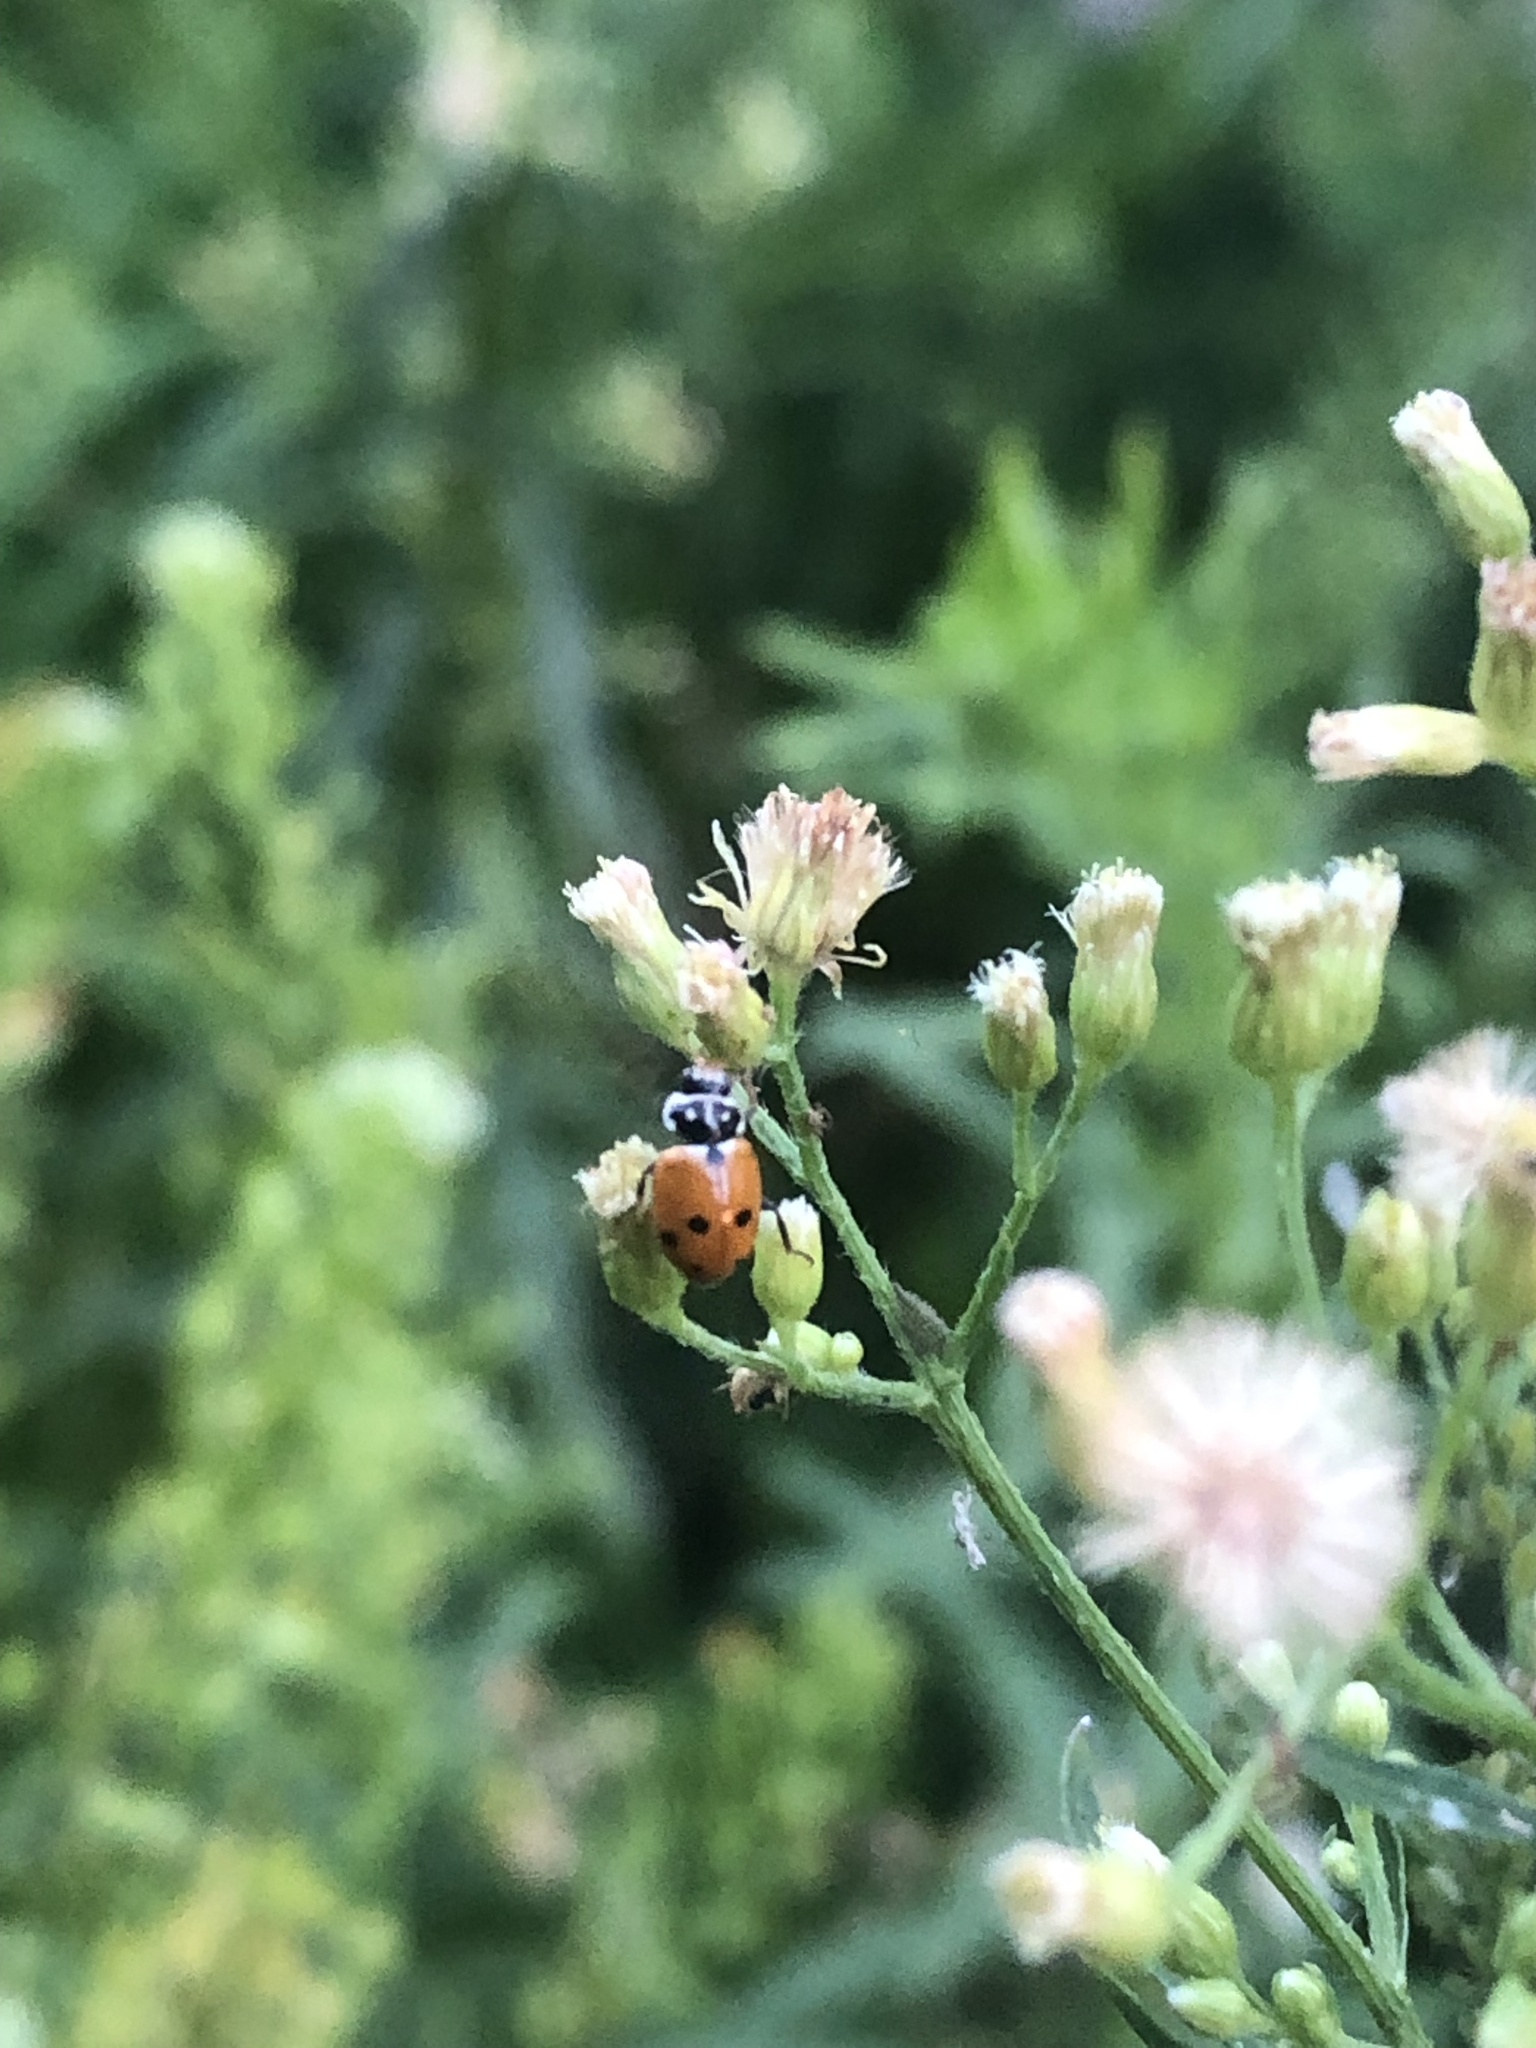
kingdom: Animalia
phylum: Arthropoda
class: Insecta
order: Coleoptera
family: Coccinellidae
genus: Hippodamia
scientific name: Hippodamia variegata
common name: Ladybird beetle
